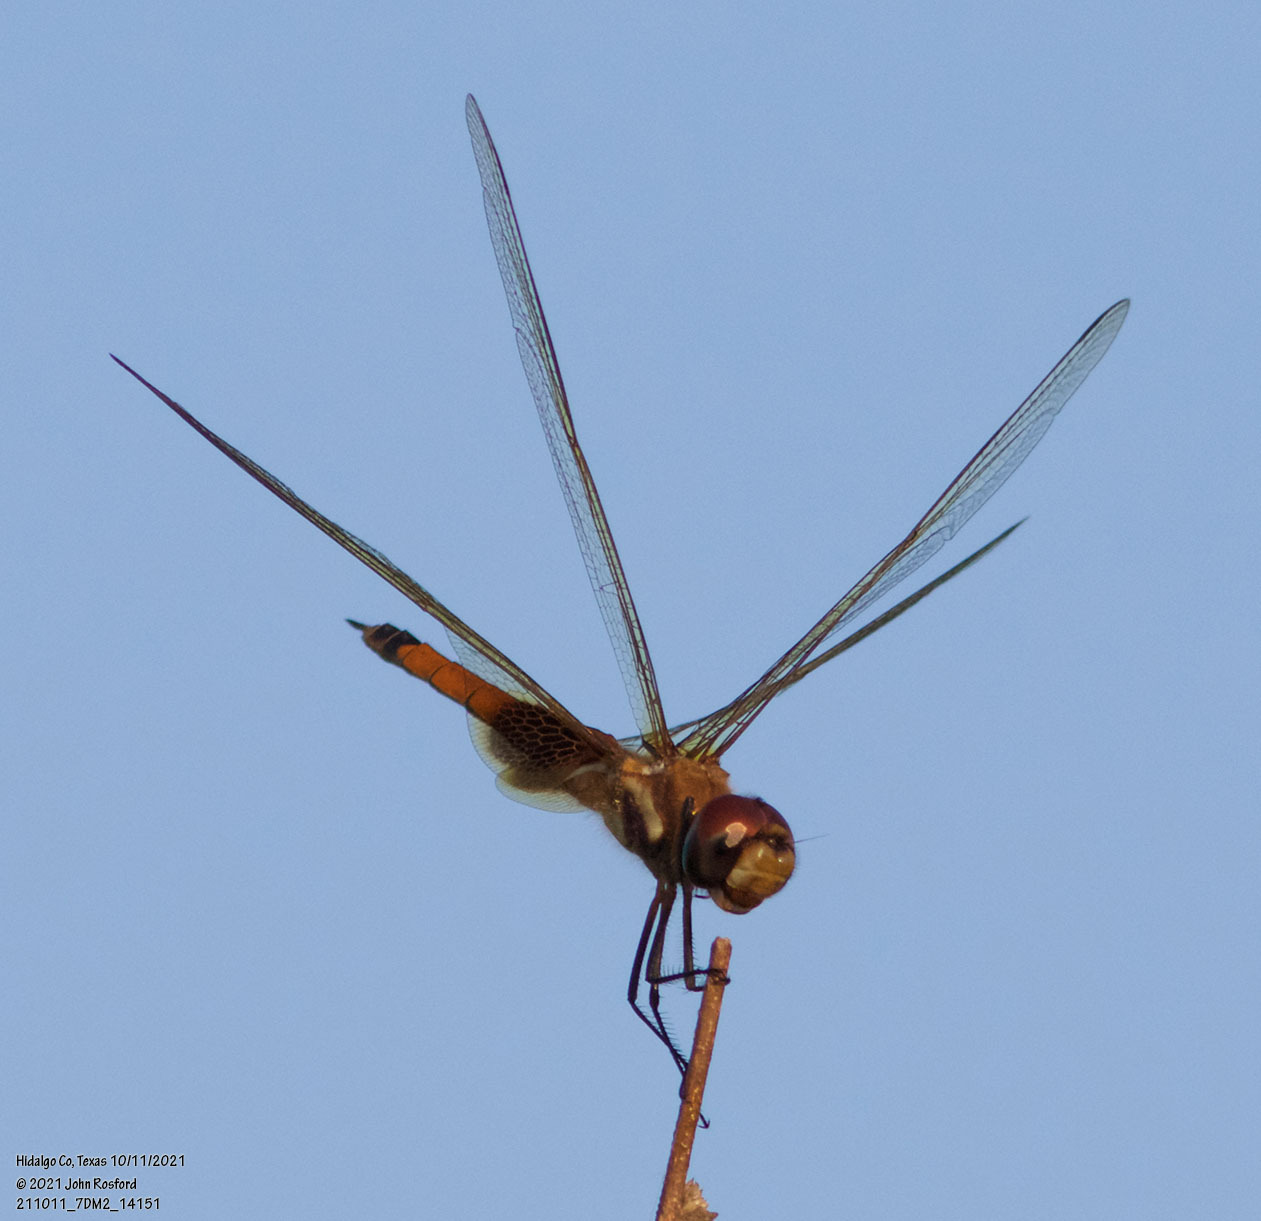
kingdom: Animalia
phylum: Arthropoda
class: Insecta
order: Odonata
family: Libellulidae
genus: Tramea
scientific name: Tramea darwini
